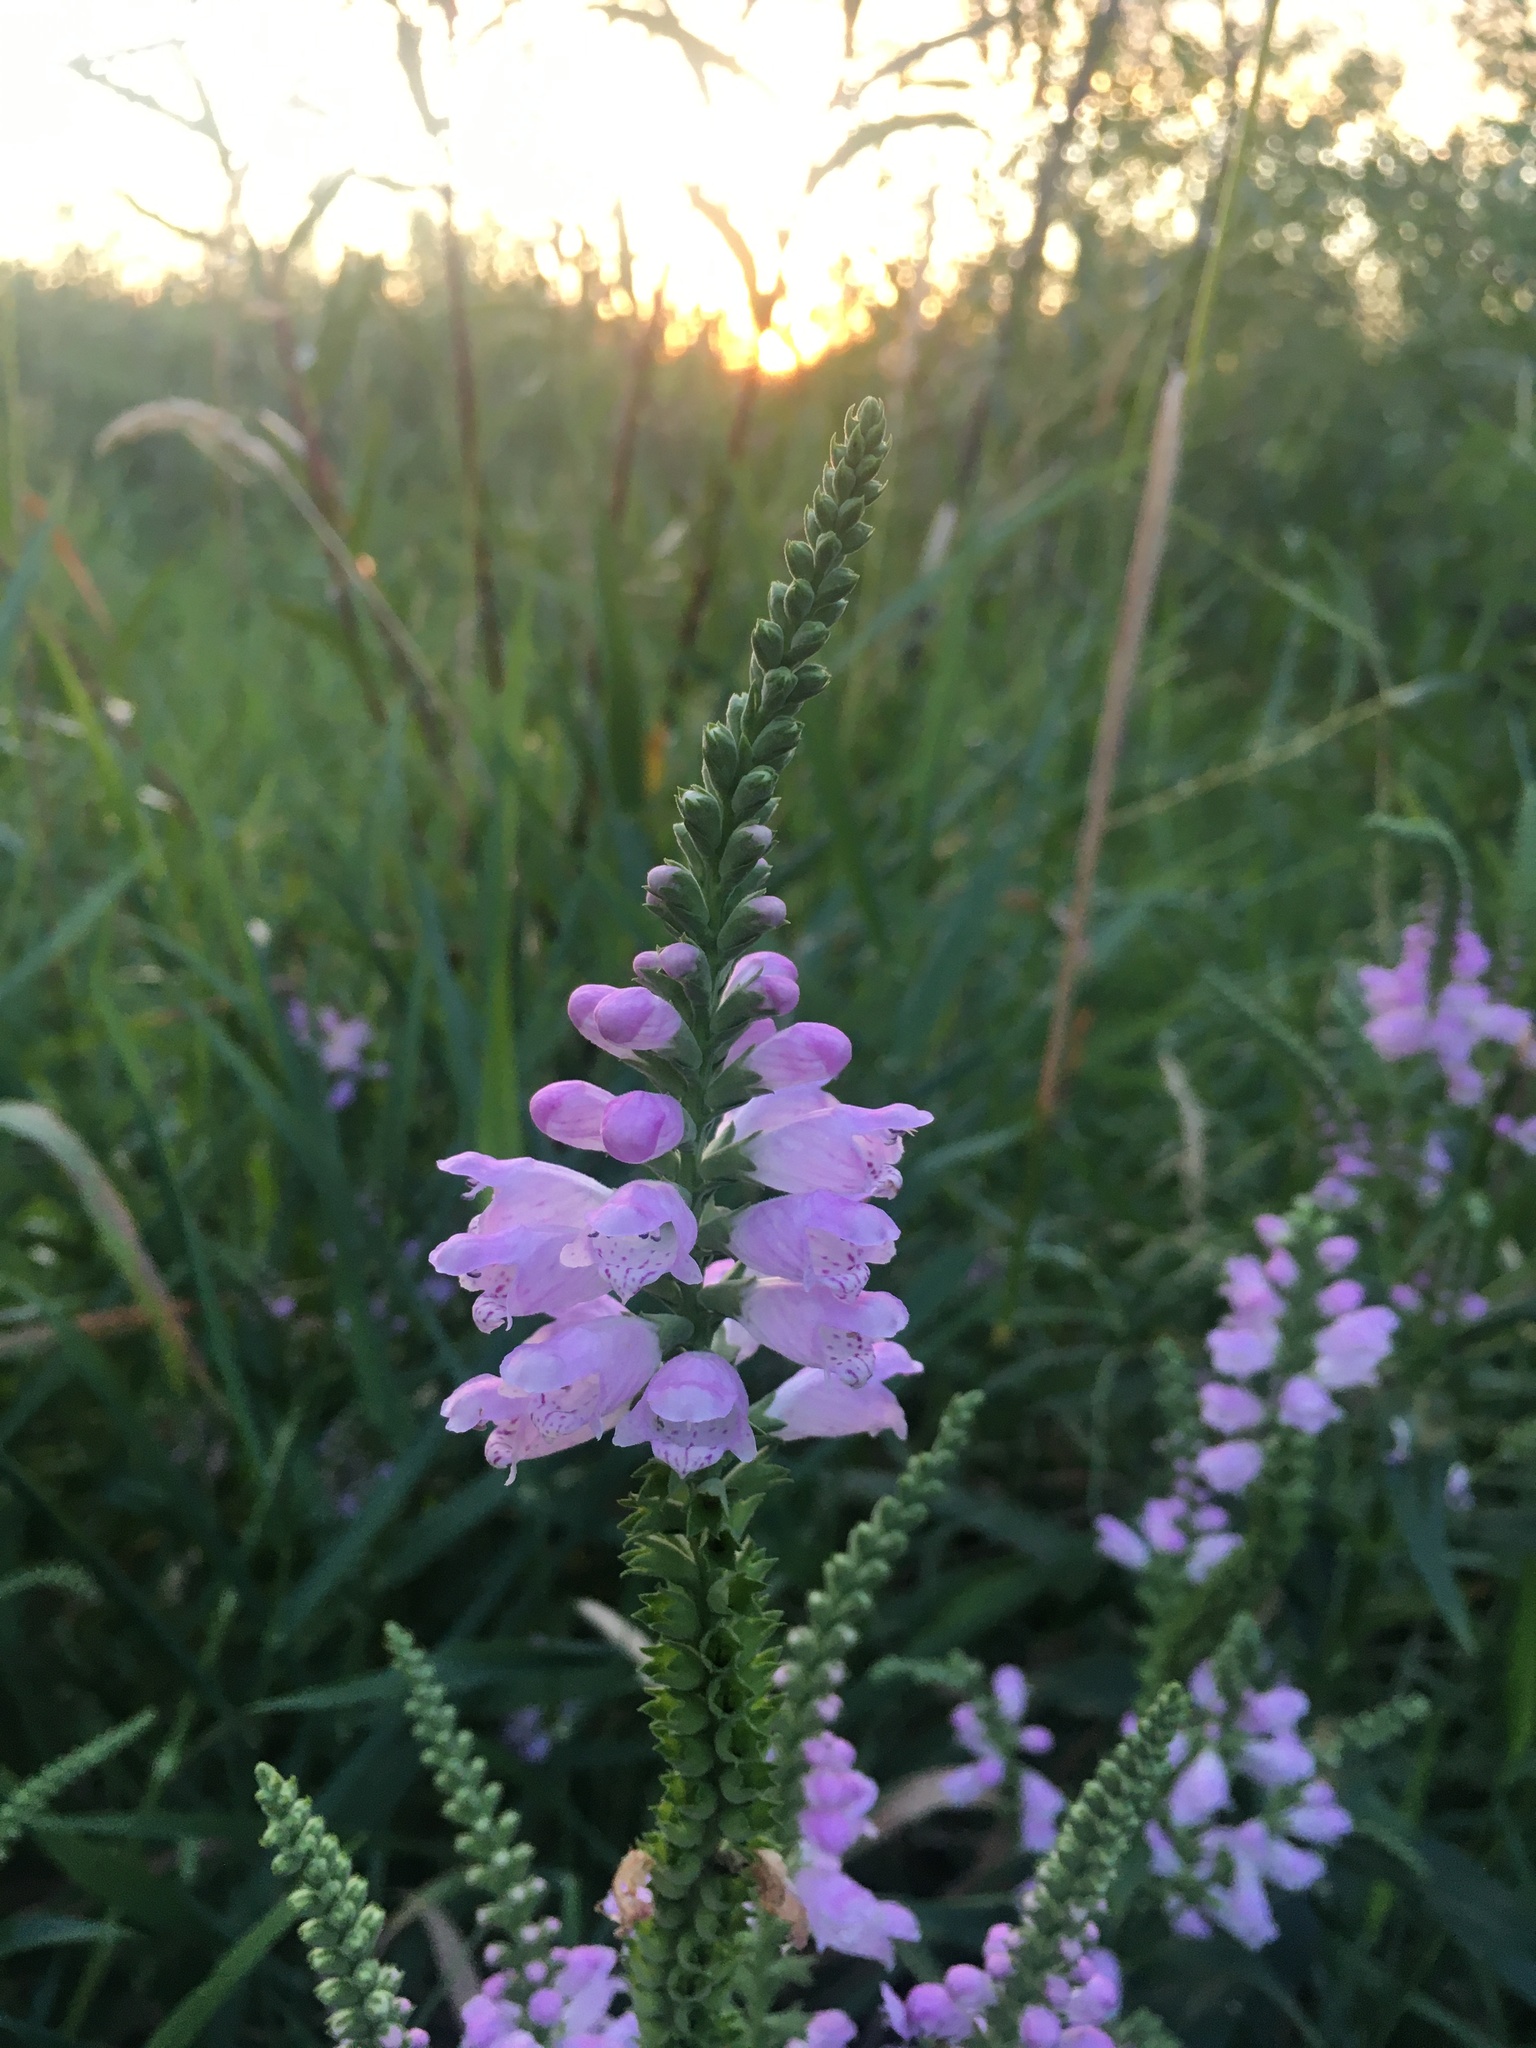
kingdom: Plantae
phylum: Tracheophyta
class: Magnoliopsida
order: Lamiales
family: Lamiaceae
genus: Physostegia
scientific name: Physostegia virginiana
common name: Obedient-plant
